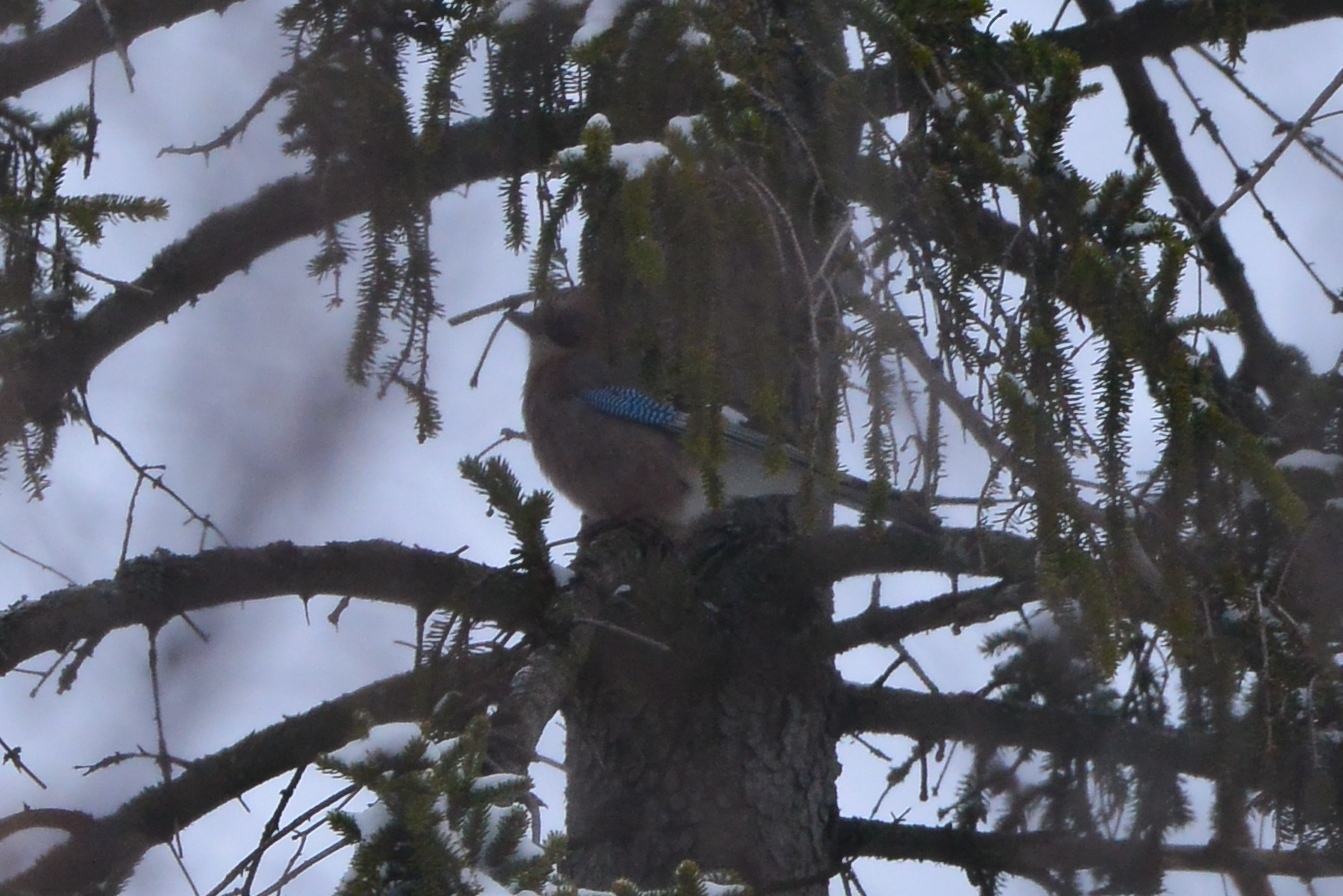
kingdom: Animalia
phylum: Chordata
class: Aves
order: Passeriformes
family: Corvidae
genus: Garrulus
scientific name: Garrulus glandarius
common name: Eurasian jay
